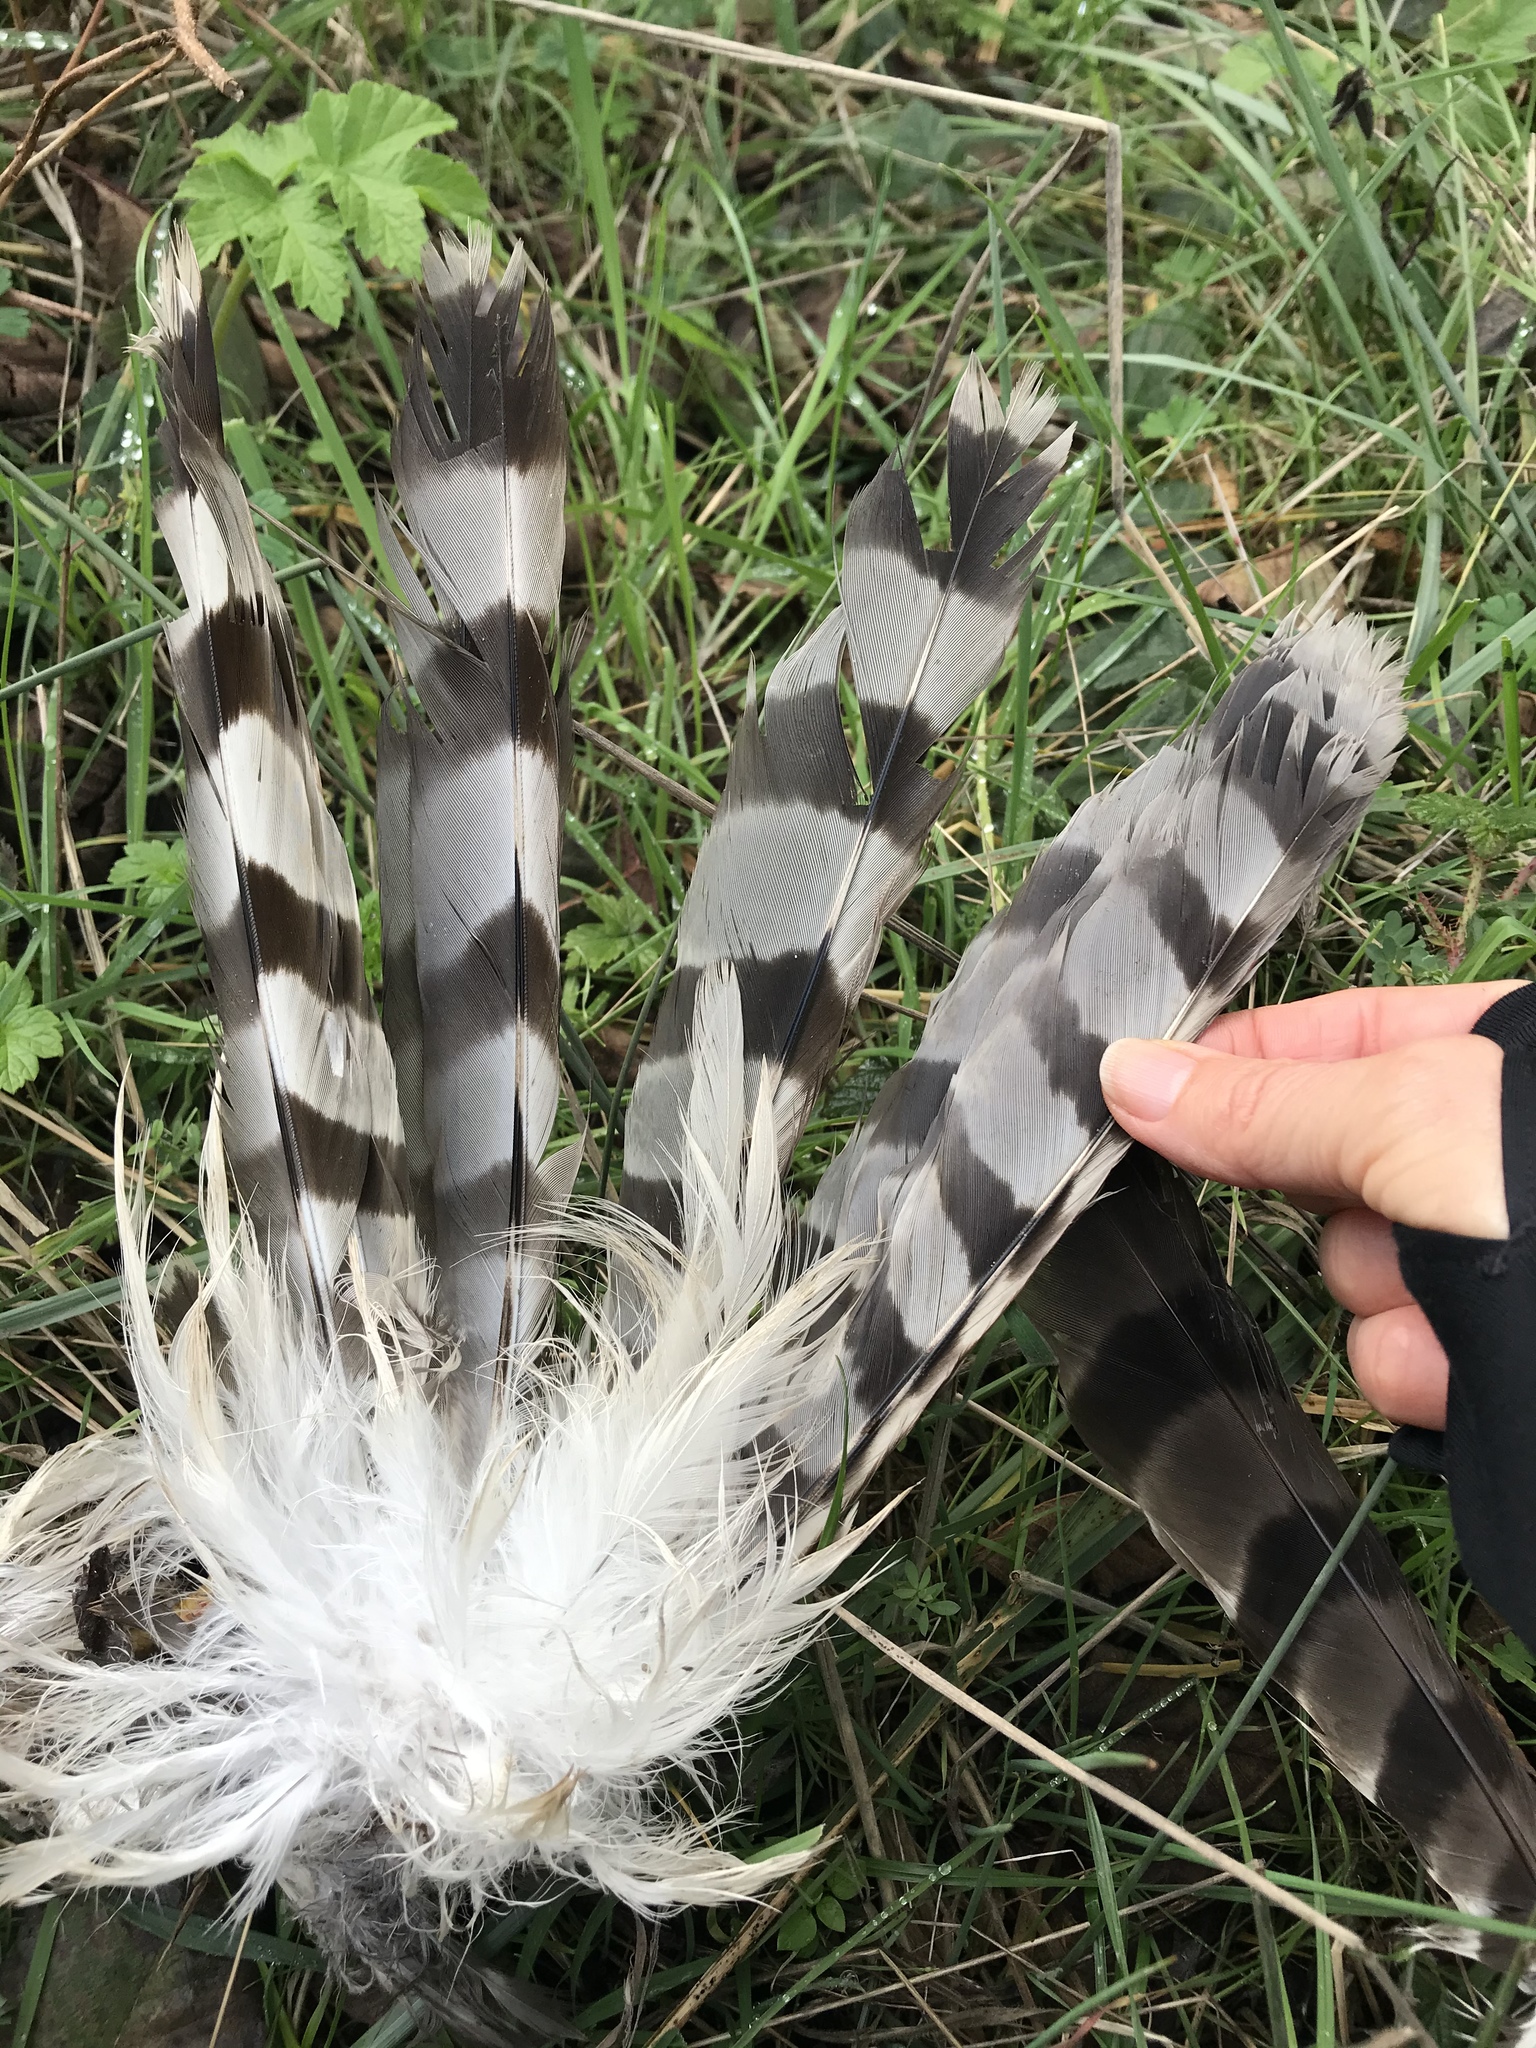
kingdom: Animalia
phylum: Chordata
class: Aves
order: Accipitriformes
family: Accipitridae
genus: Accipiter
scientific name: Accipiter cooperii
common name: Cooper's hawk
